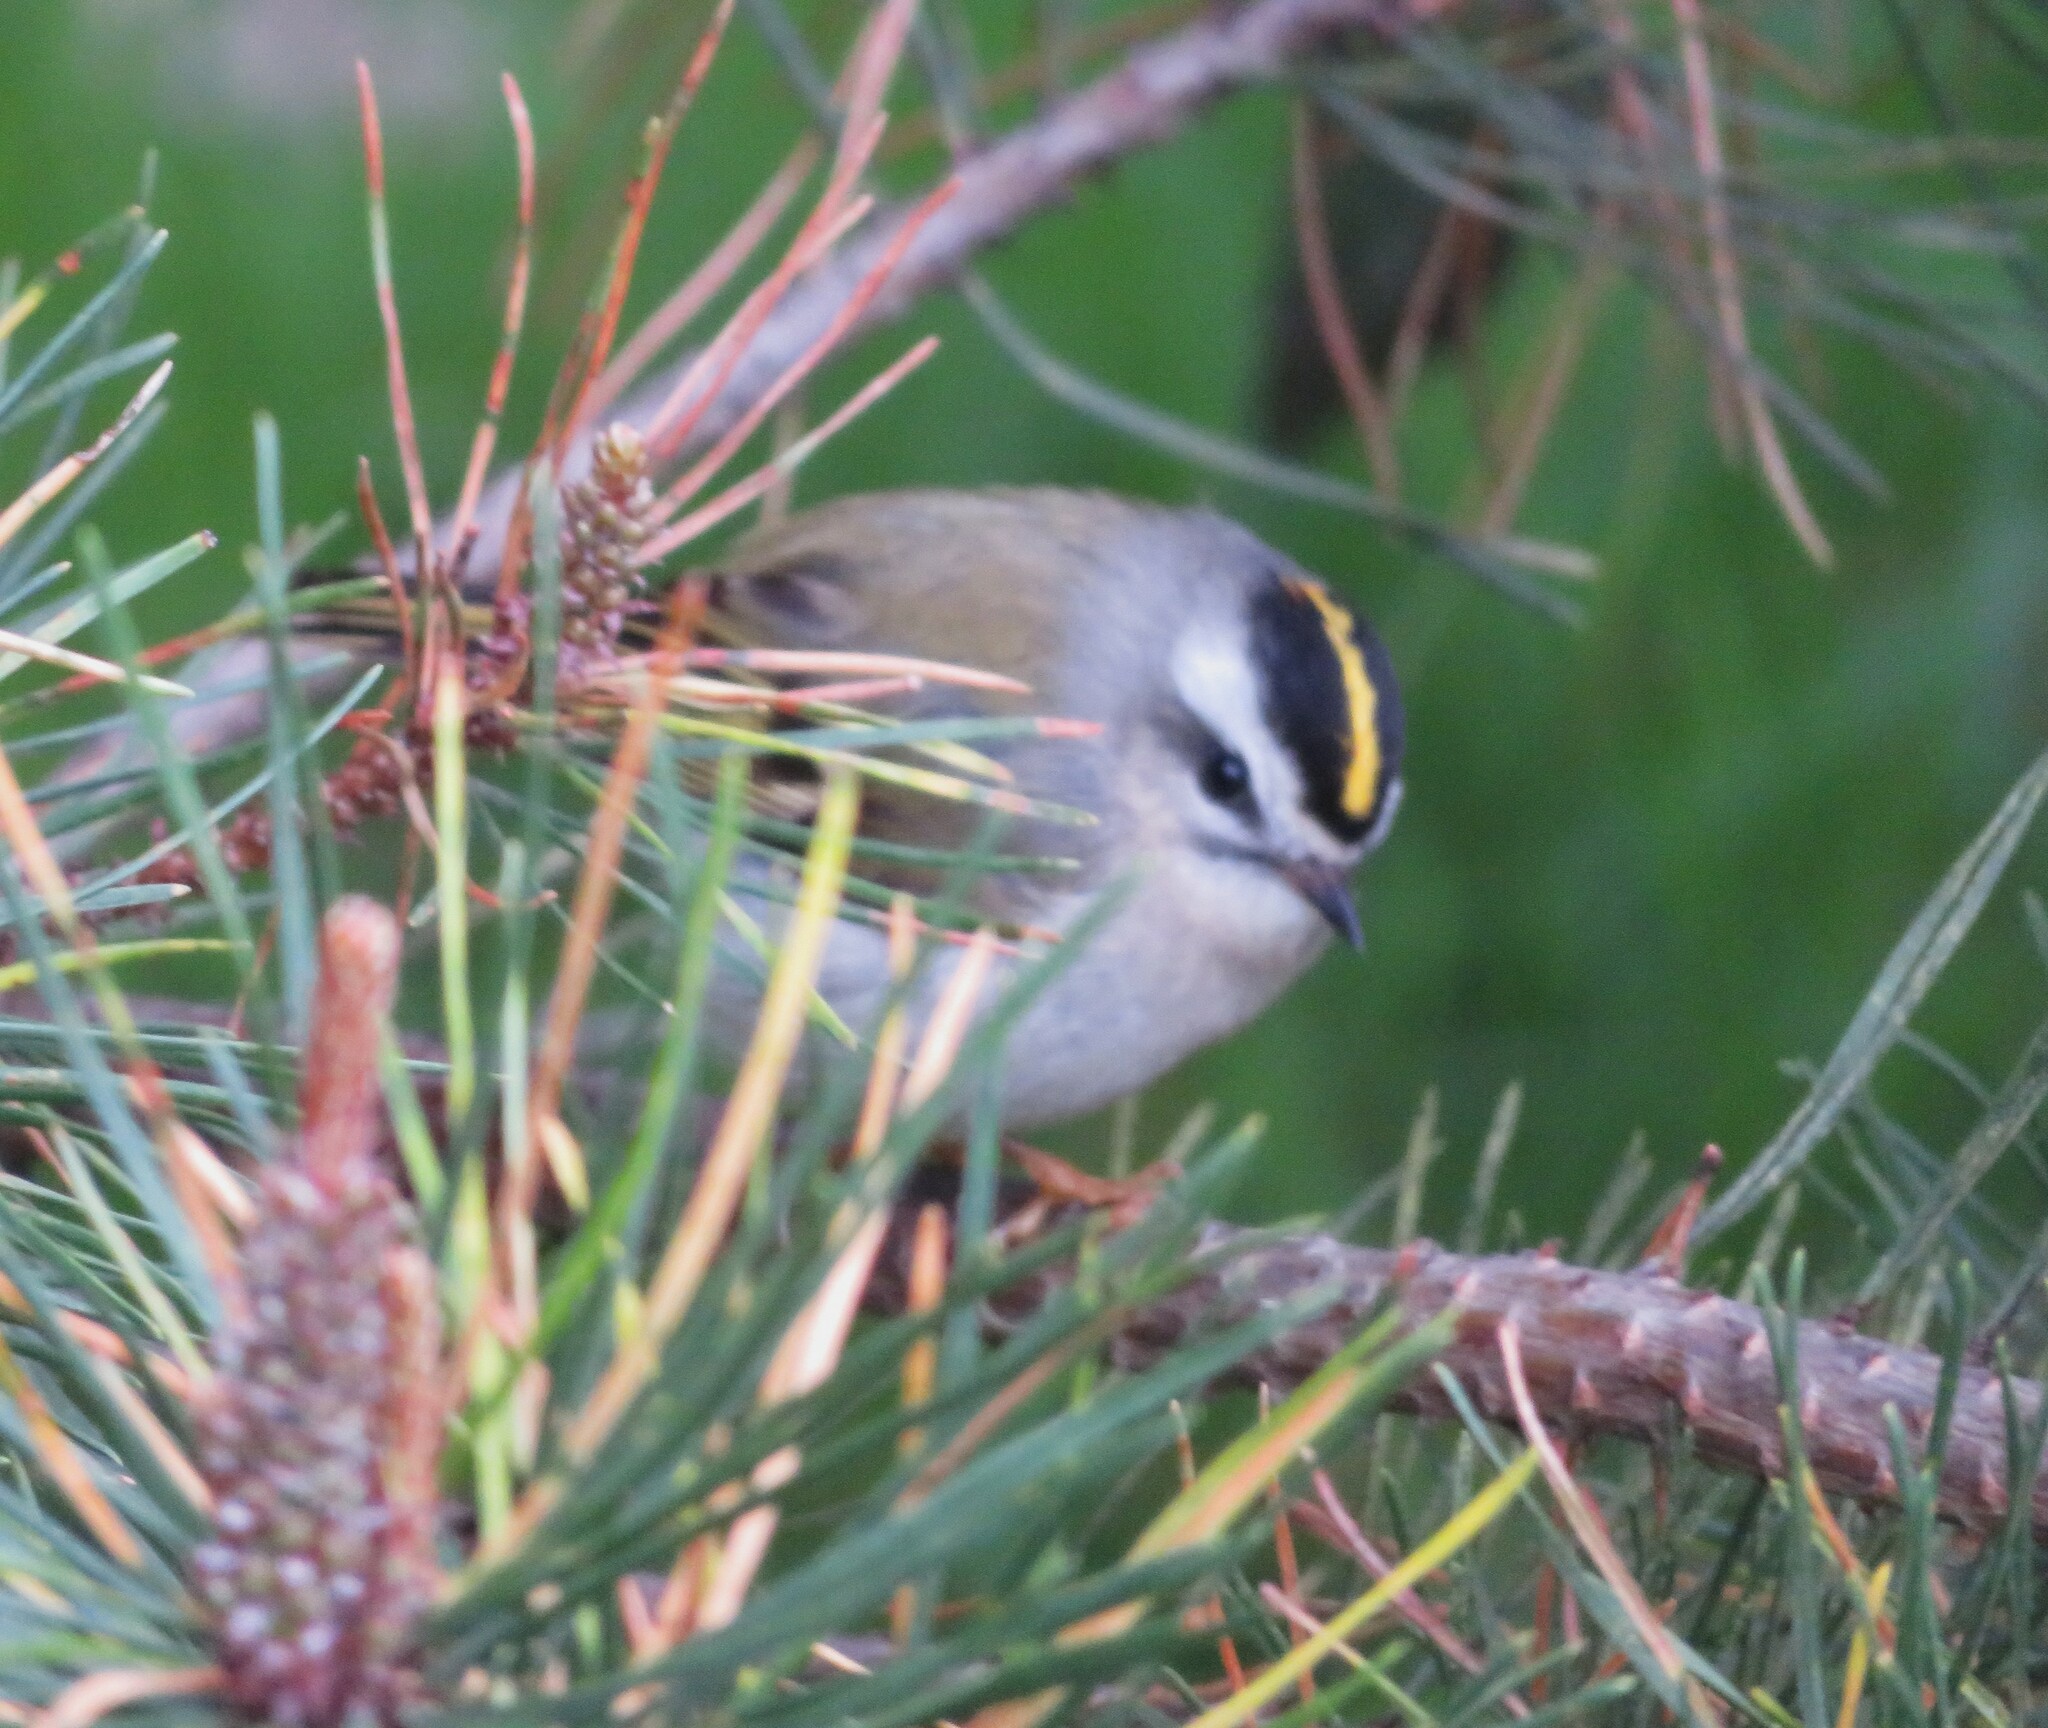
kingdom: Animalia
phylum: Chordata
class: Aves
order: Passeriformes
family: Regulidae
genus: Regulus
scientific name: Regulus satrapa
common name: Golden-crowned kinglet
